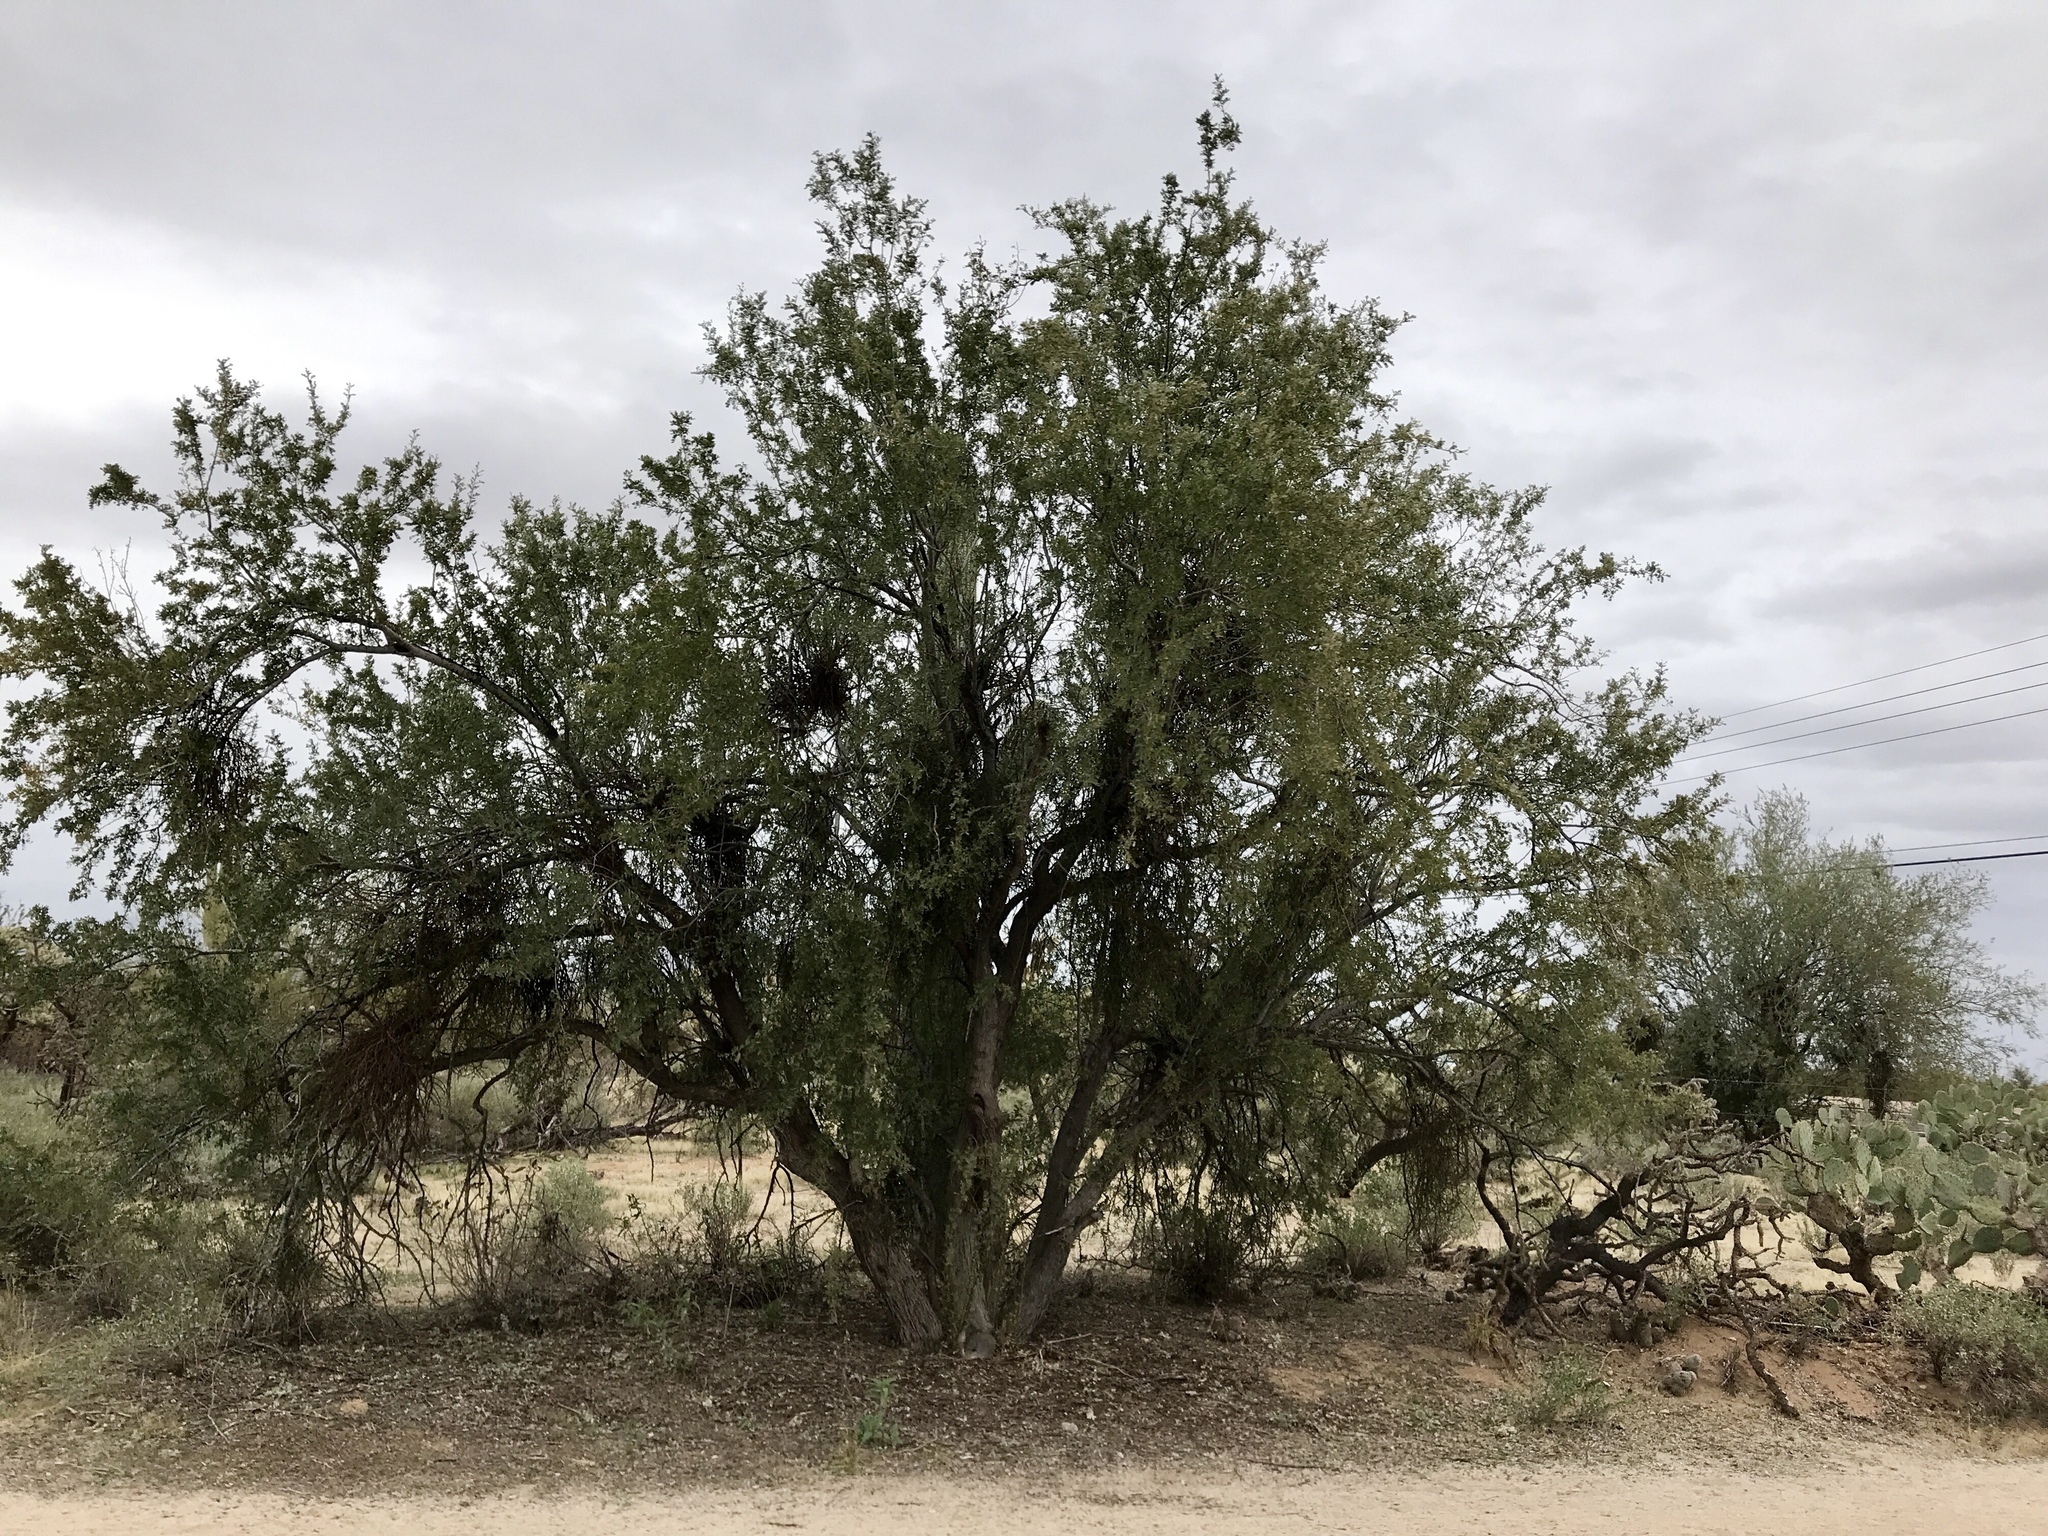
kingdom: Plantae
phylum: Tracheophyta
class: Magnoliopsida
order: Fabales
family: Fabaceae
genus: Olneya
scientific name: Olneya tesota
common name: Desert ironwood
